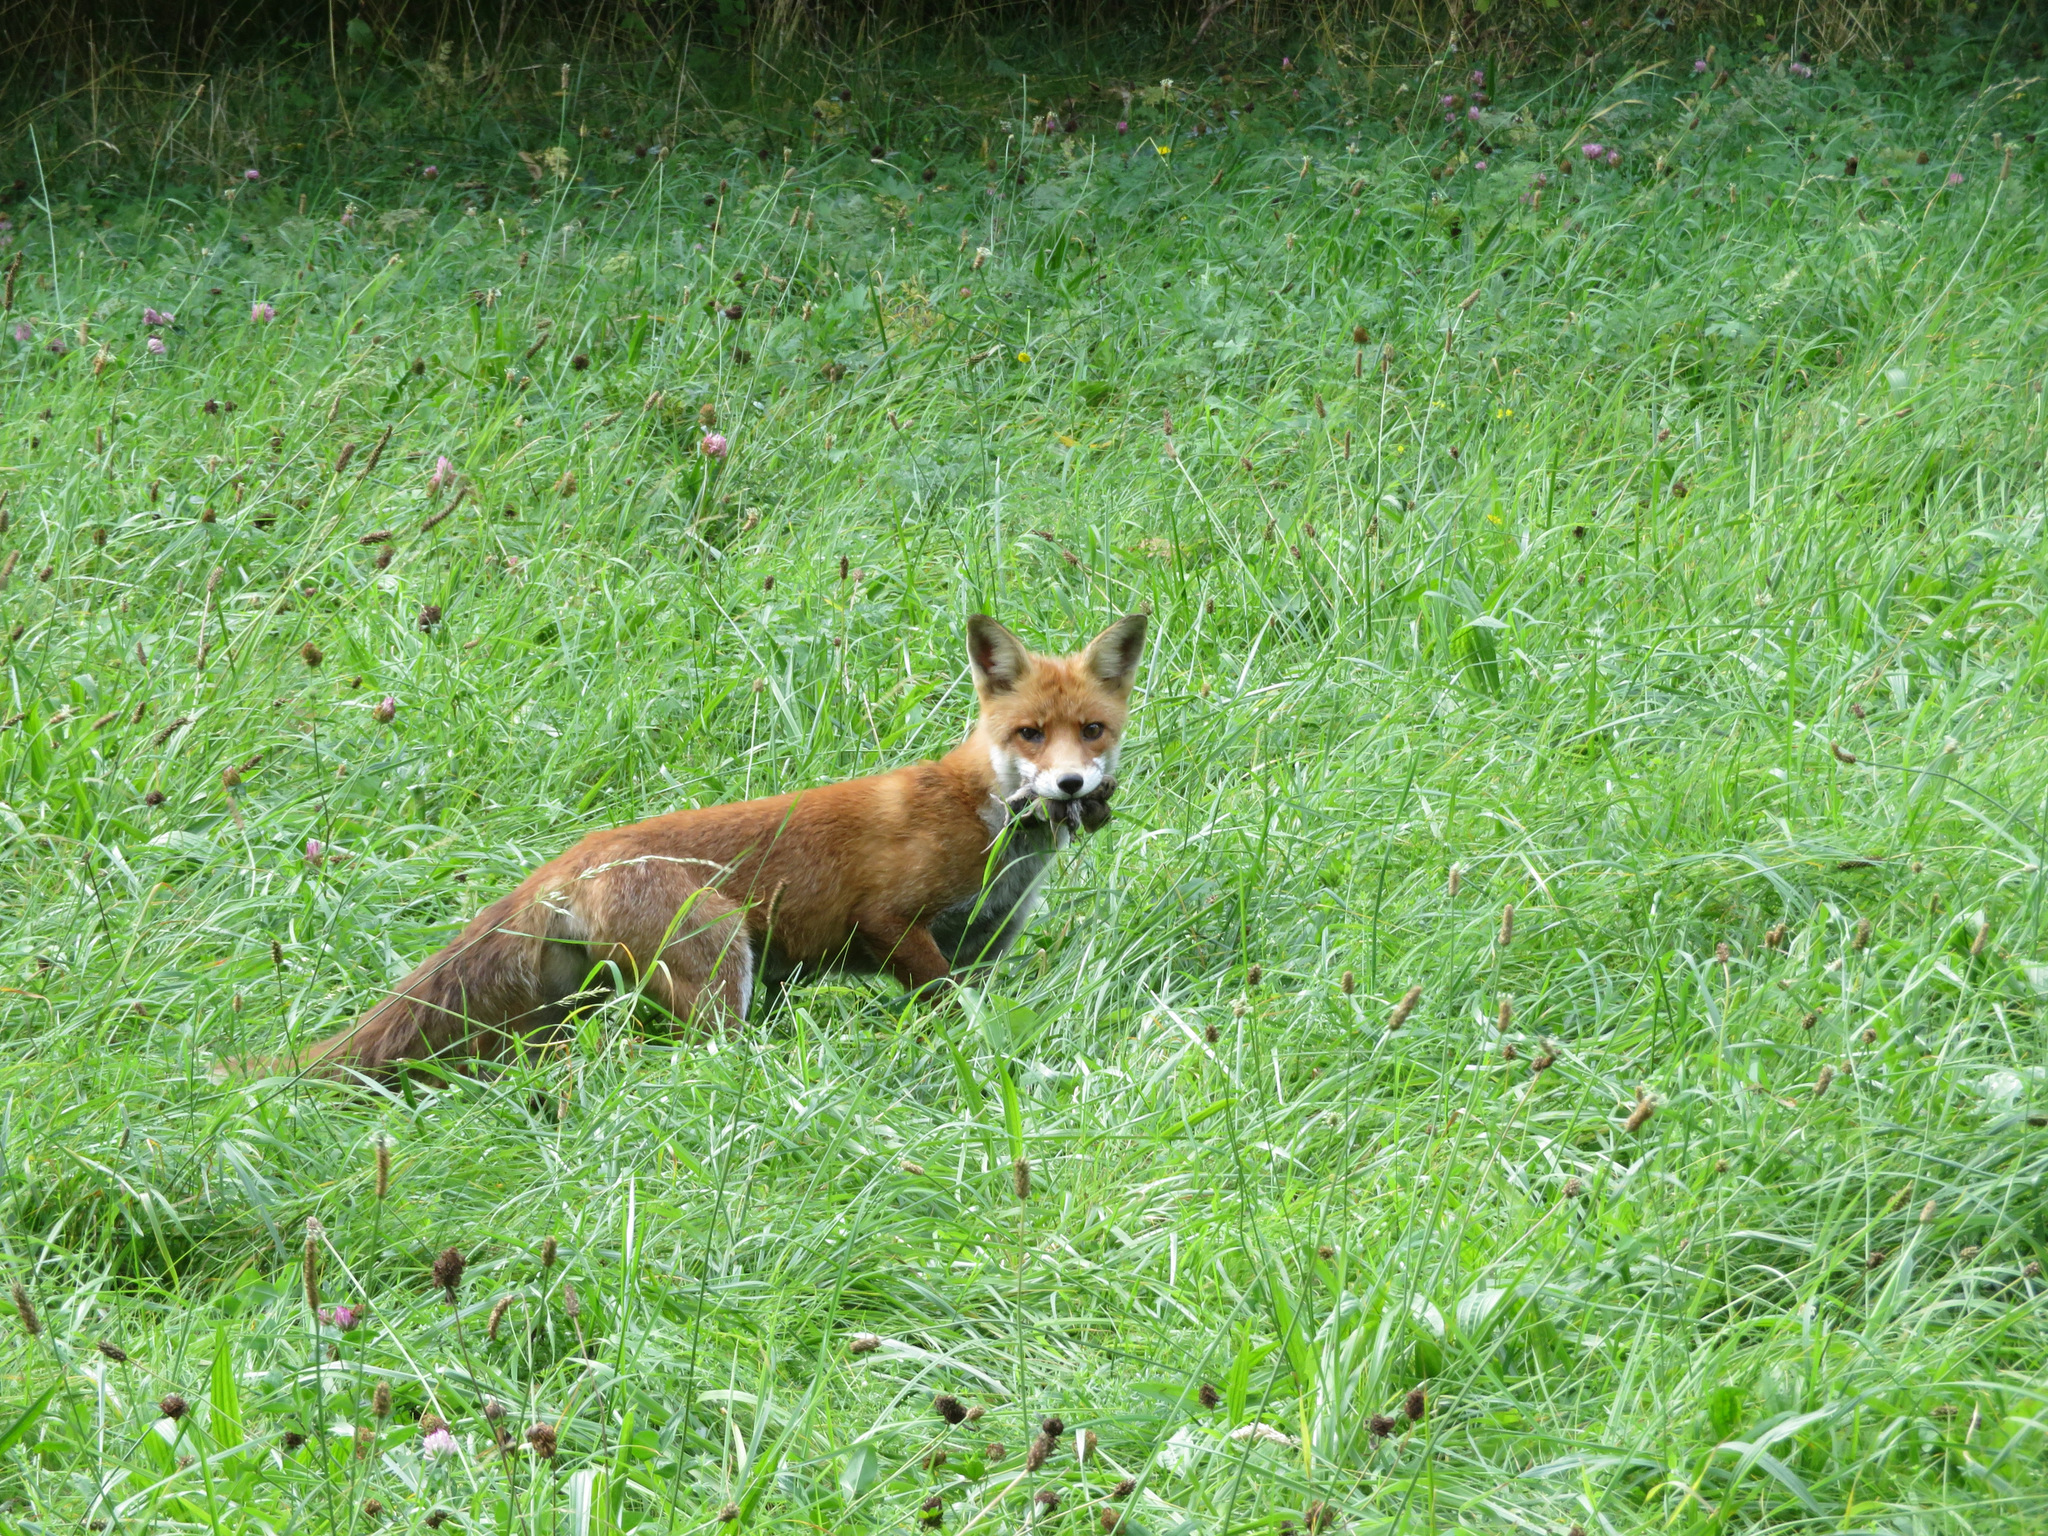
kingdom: Animalia
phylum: Chordata
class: Mammalia
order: Carnivora
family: Canidae
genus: Vulpes
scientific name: Vulpes vulpes
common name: Red fox
